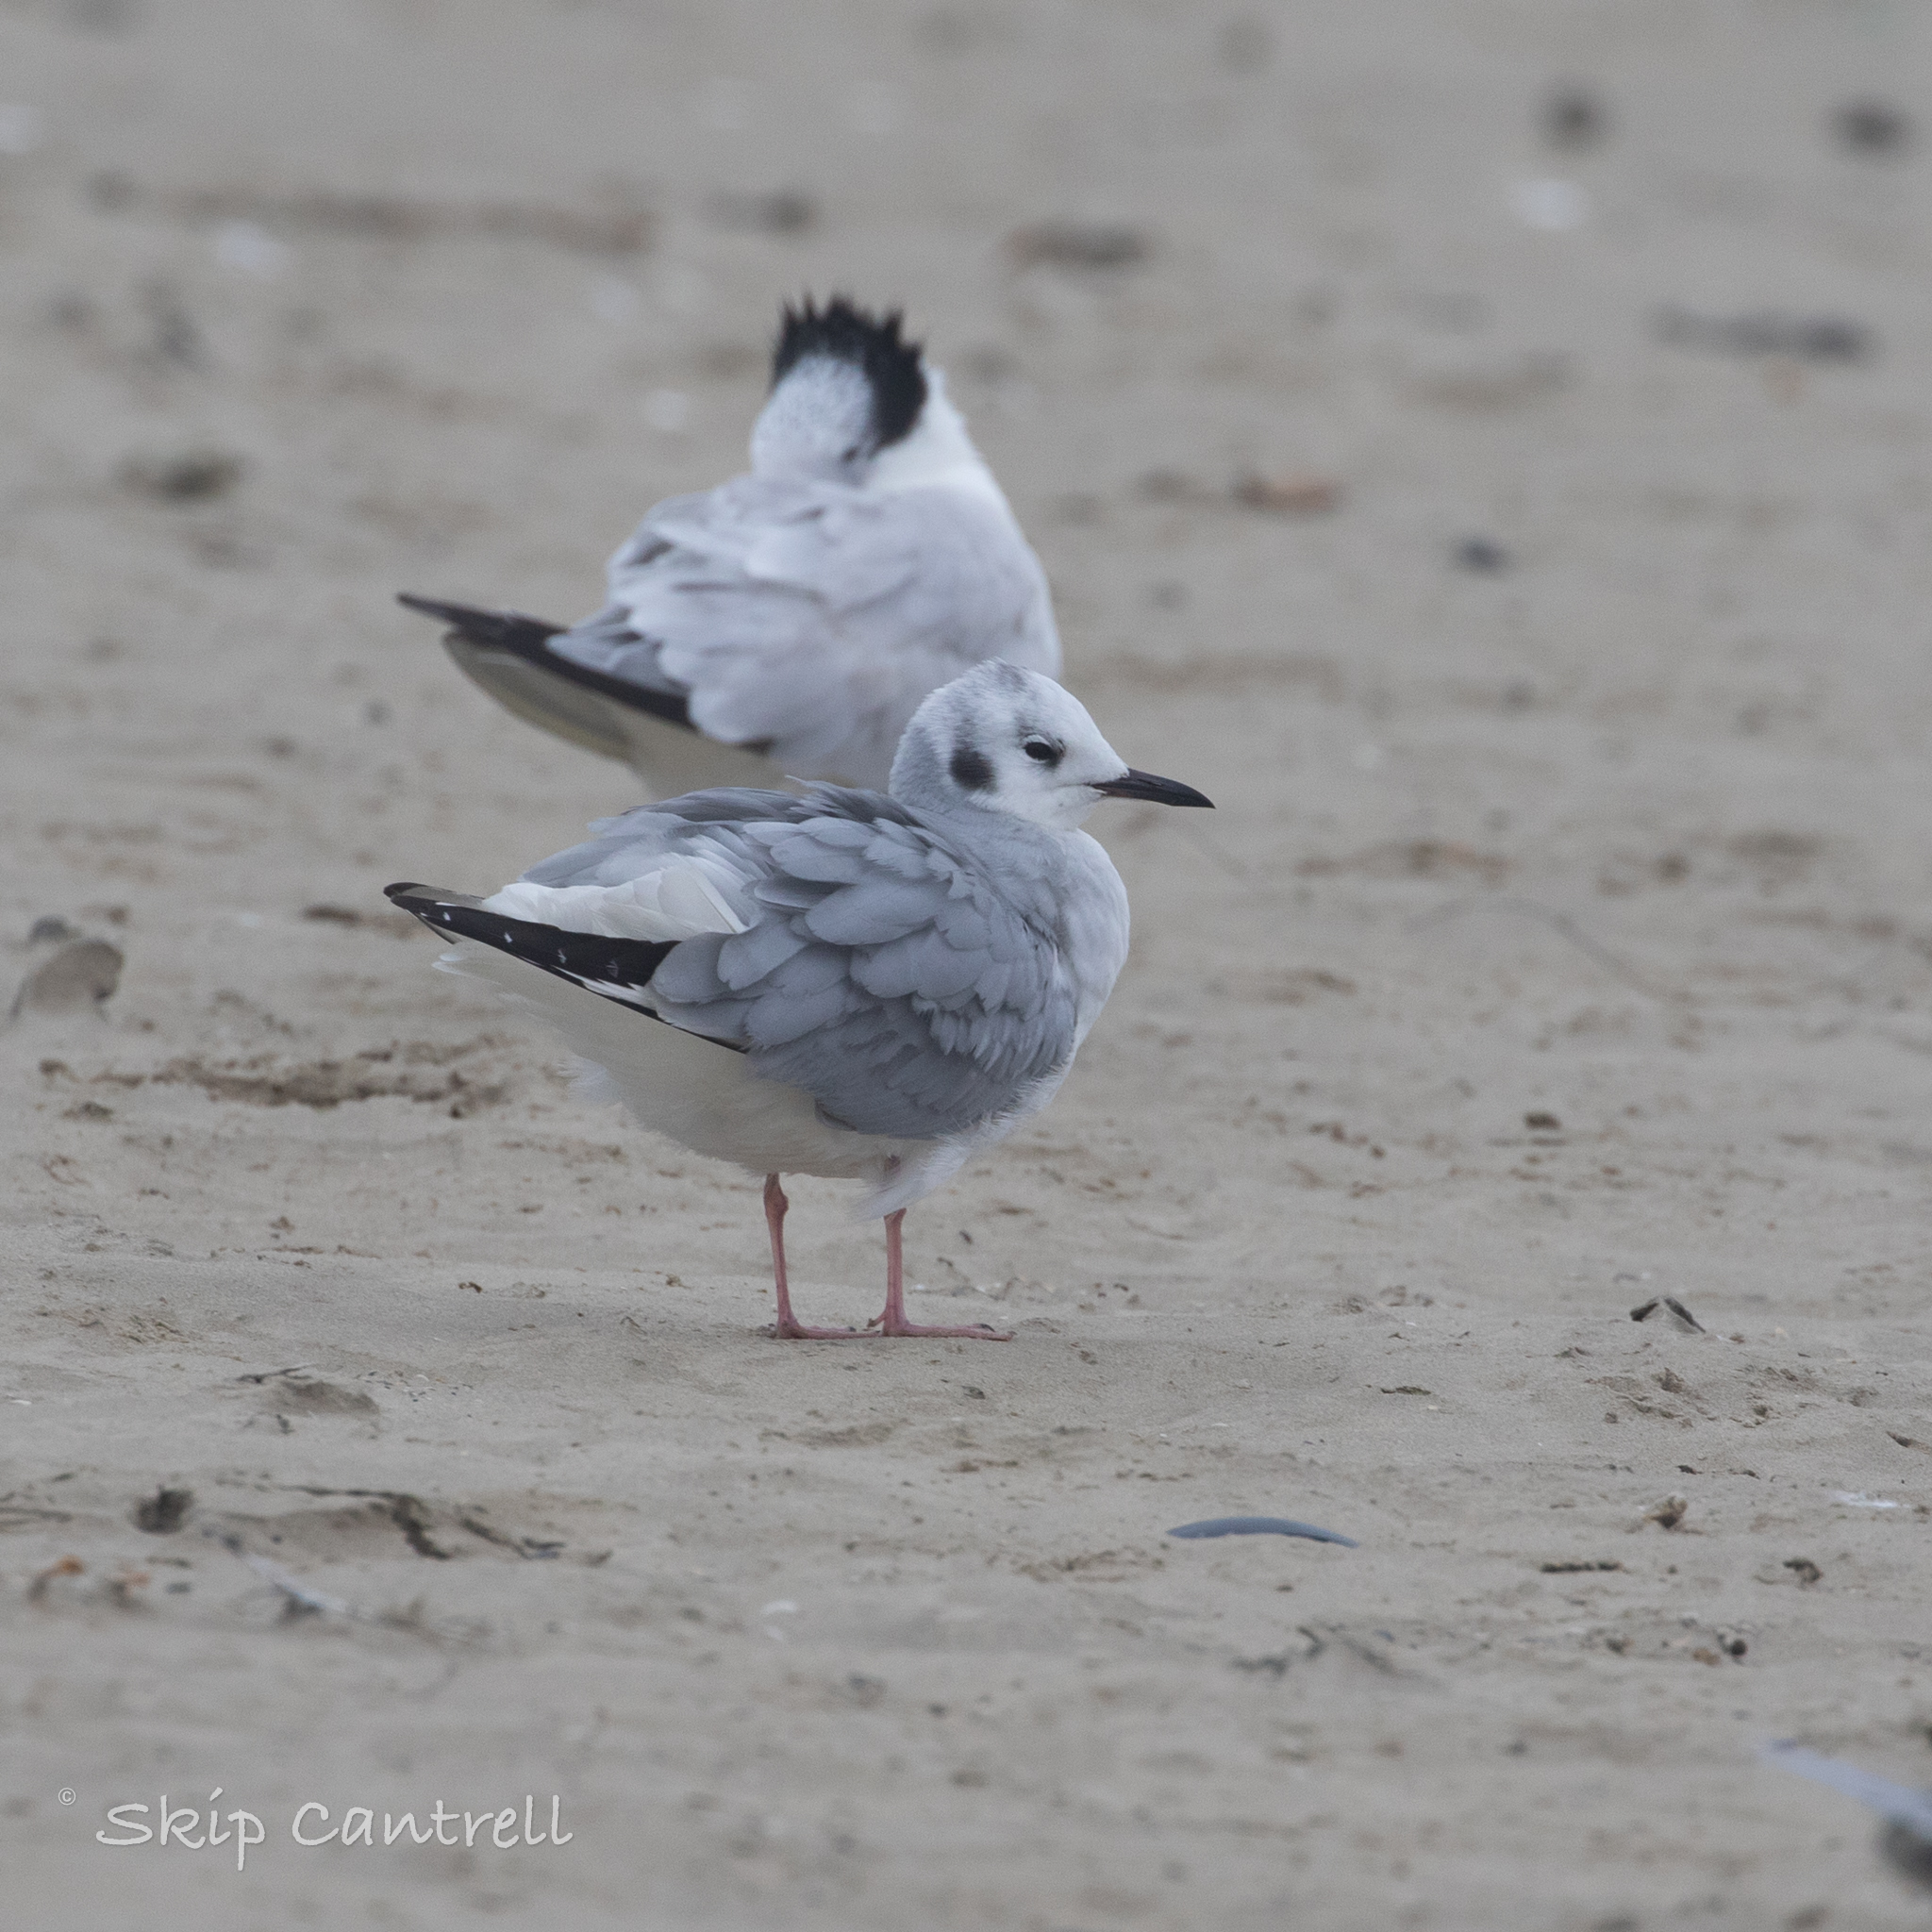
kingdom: Animalia
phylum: Chordata
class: Aves
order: Charadriiformes
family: Laridae
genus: Chroicocephalus
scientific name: Chroicocephalus philadelphia
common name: Bonaparte's gull
